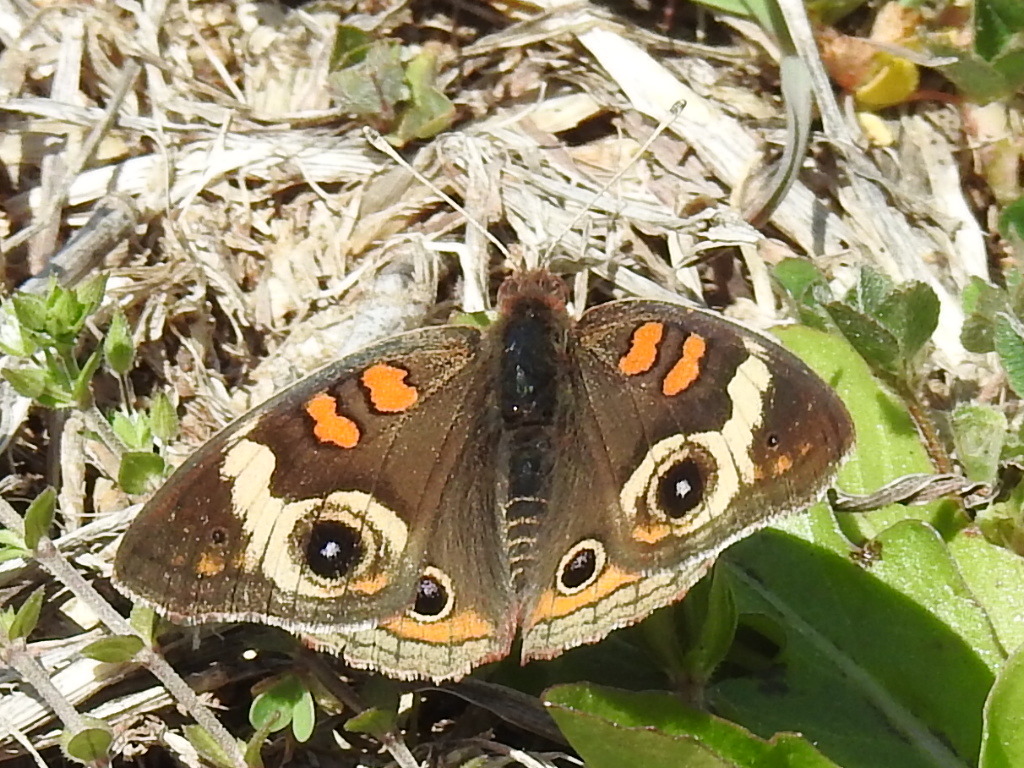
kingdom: Animalia
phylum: Arthropoda
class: Insecta
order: Lepidoptera
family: Nymphalidae
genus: Junonia
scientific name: Junonia coenia
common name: Common buckeye
